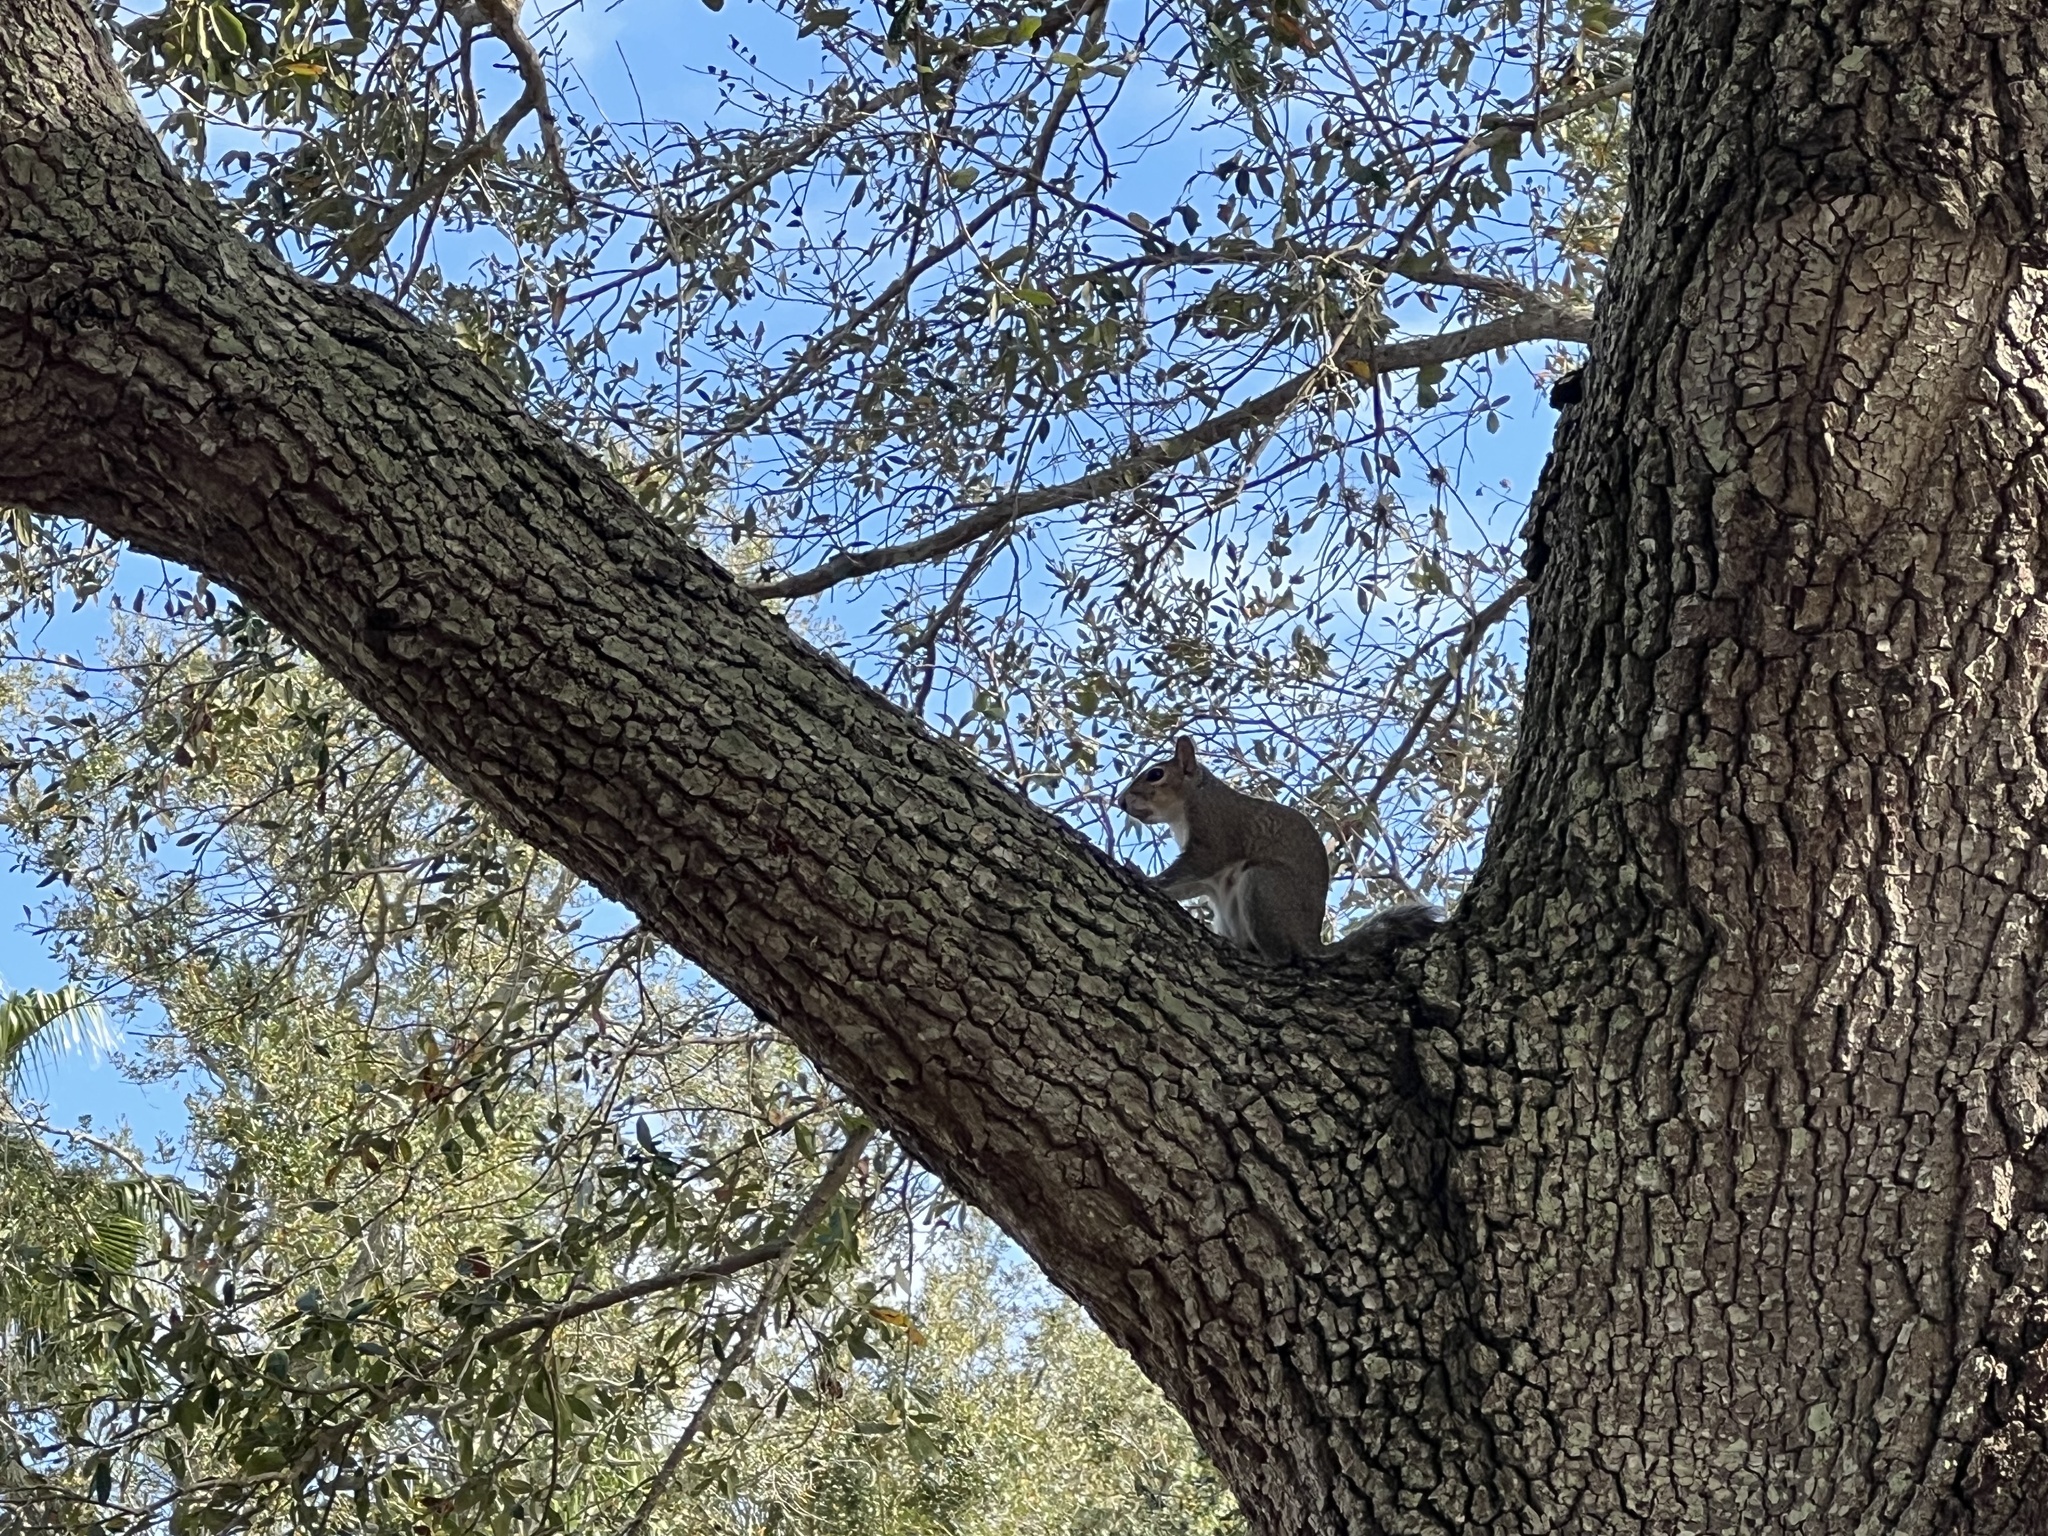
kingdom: Animalia
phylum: Chordata
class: Mammalia
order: Rodentia
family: Sciuridae
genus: Sciurus
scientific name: Sciurus carolinensis
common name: Eastern gray squirrel
